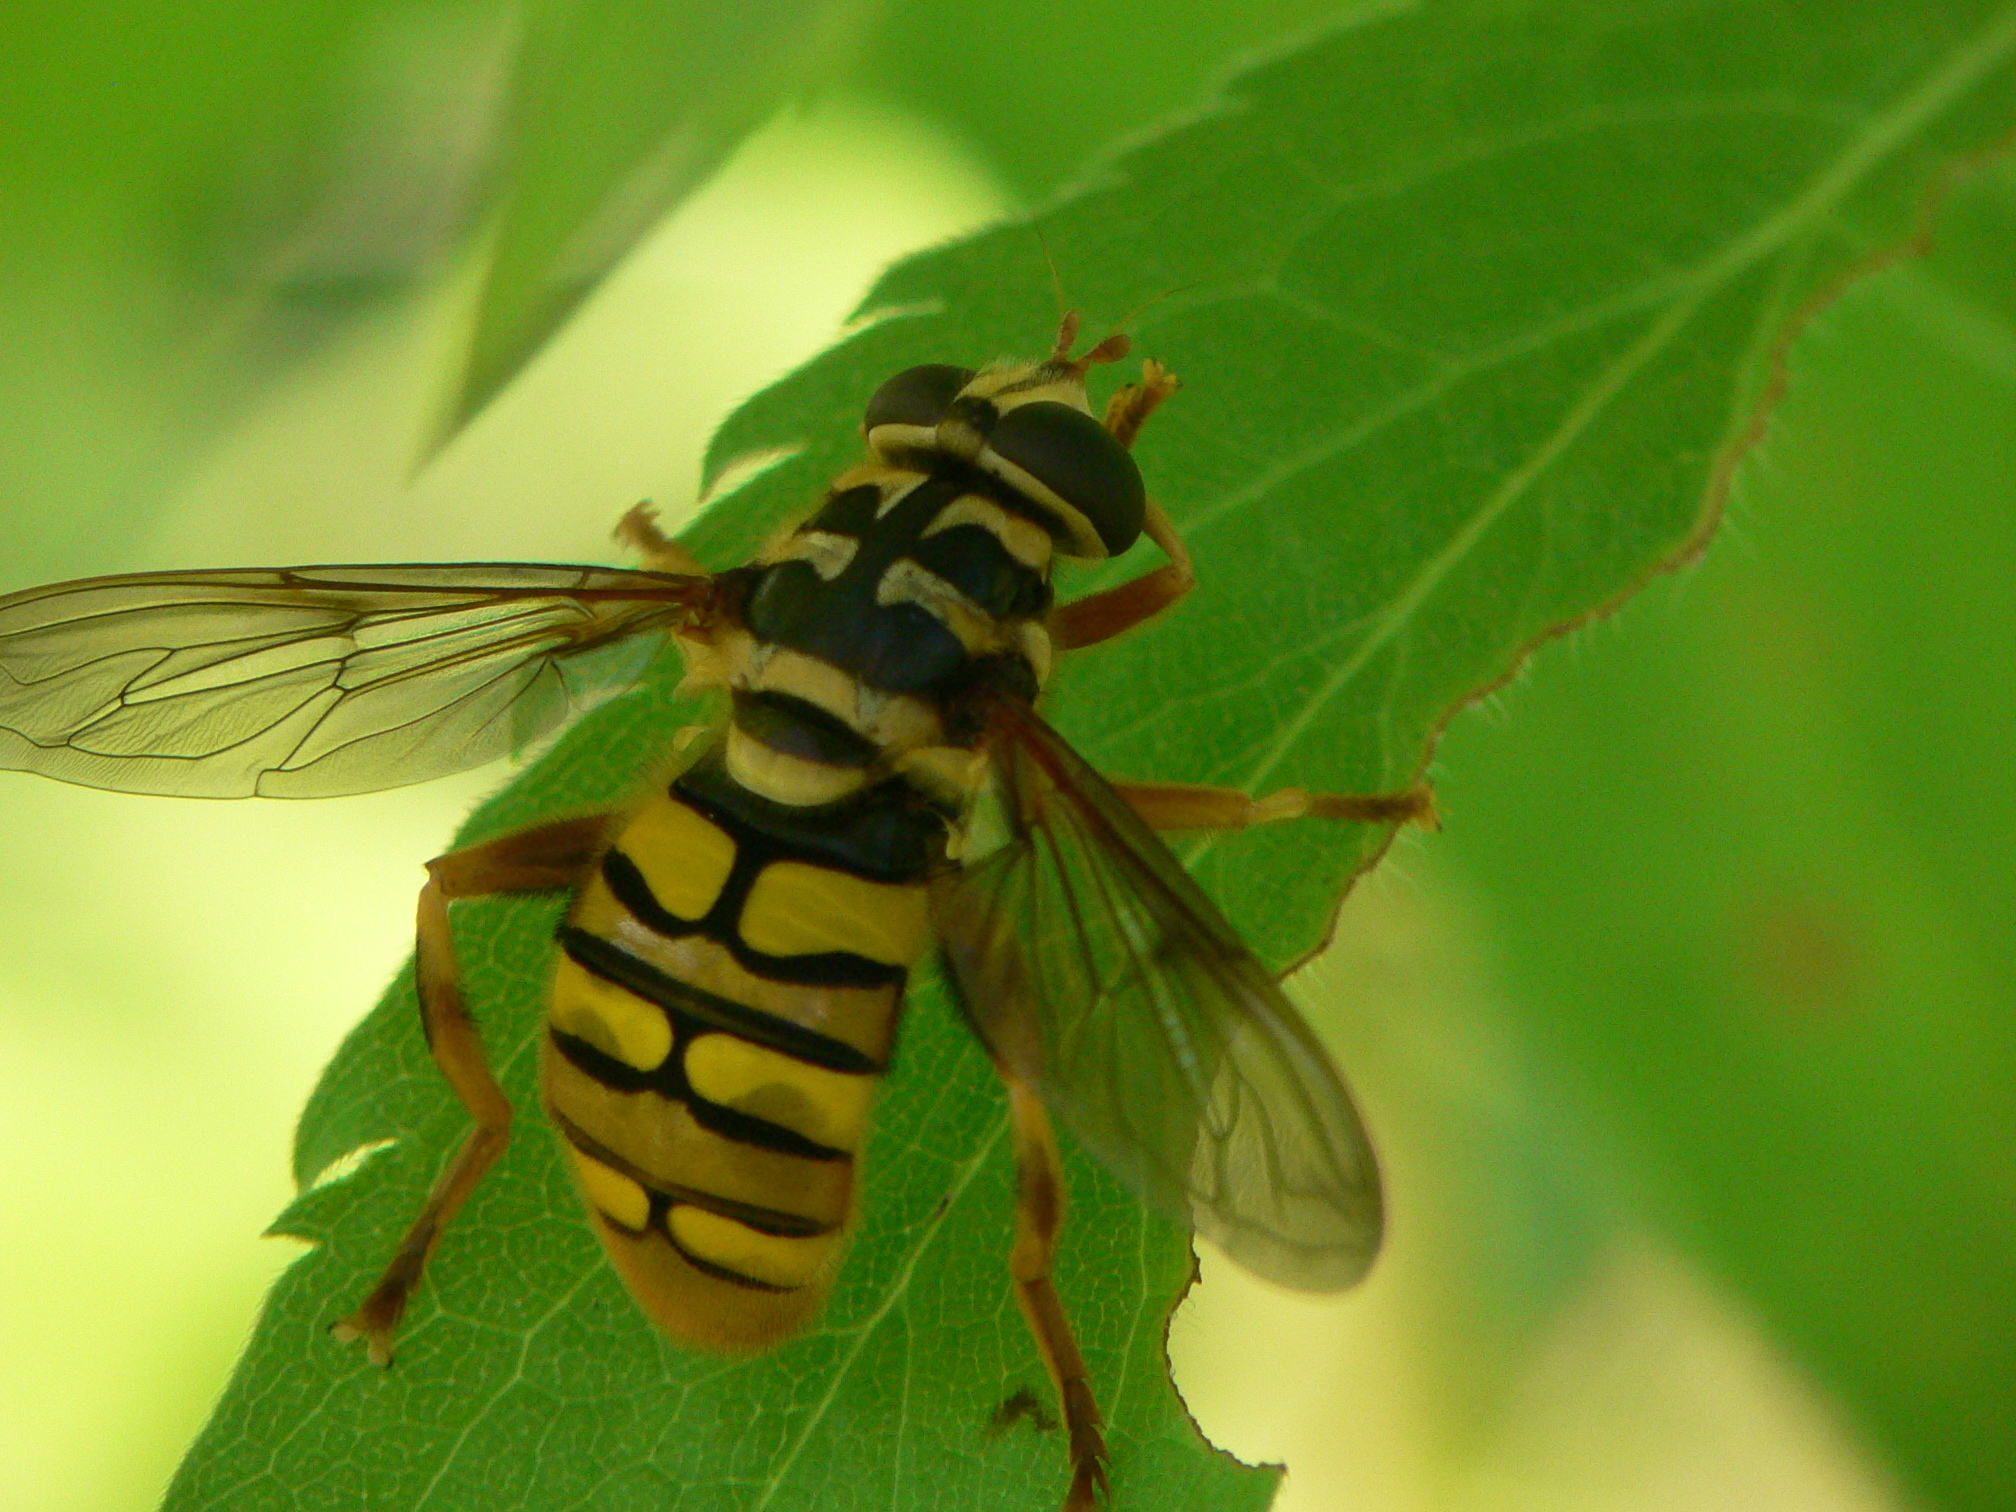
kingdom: Animalia
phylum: Arthropoda
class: Insecta
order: Diptera
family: Syrphidae
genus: Milesia
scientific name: Milesia virginiensis
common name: Virginia giant
